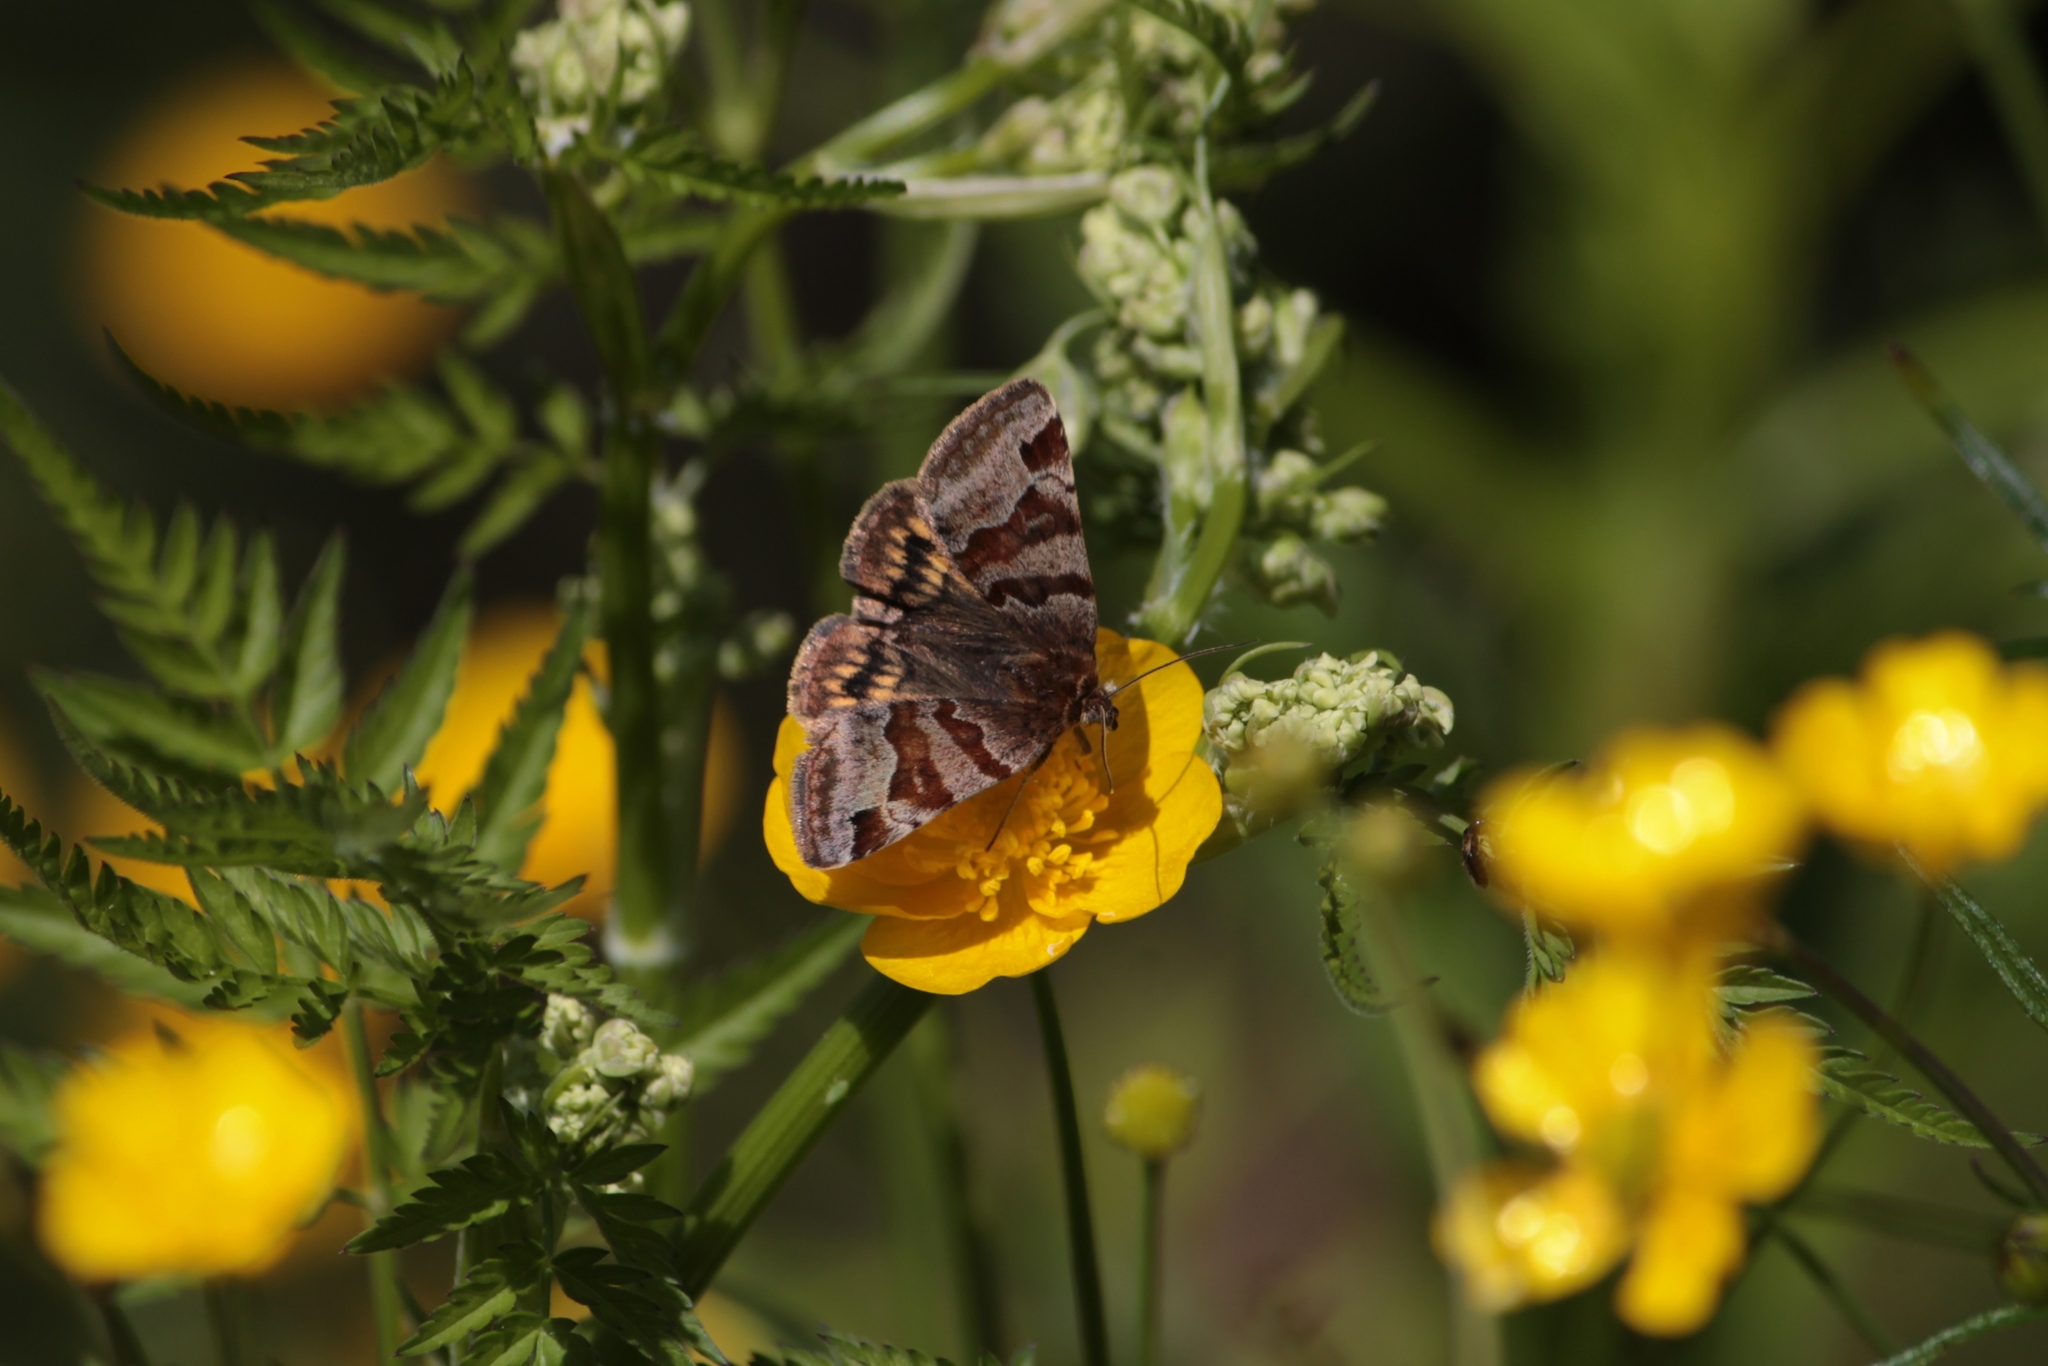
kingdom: Animalia
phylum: Arthropoda
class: Insecta
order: Lepidoptera
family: Erebidae
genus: Euclidia
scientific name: Euclidia glyphica
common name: Burnet companion
